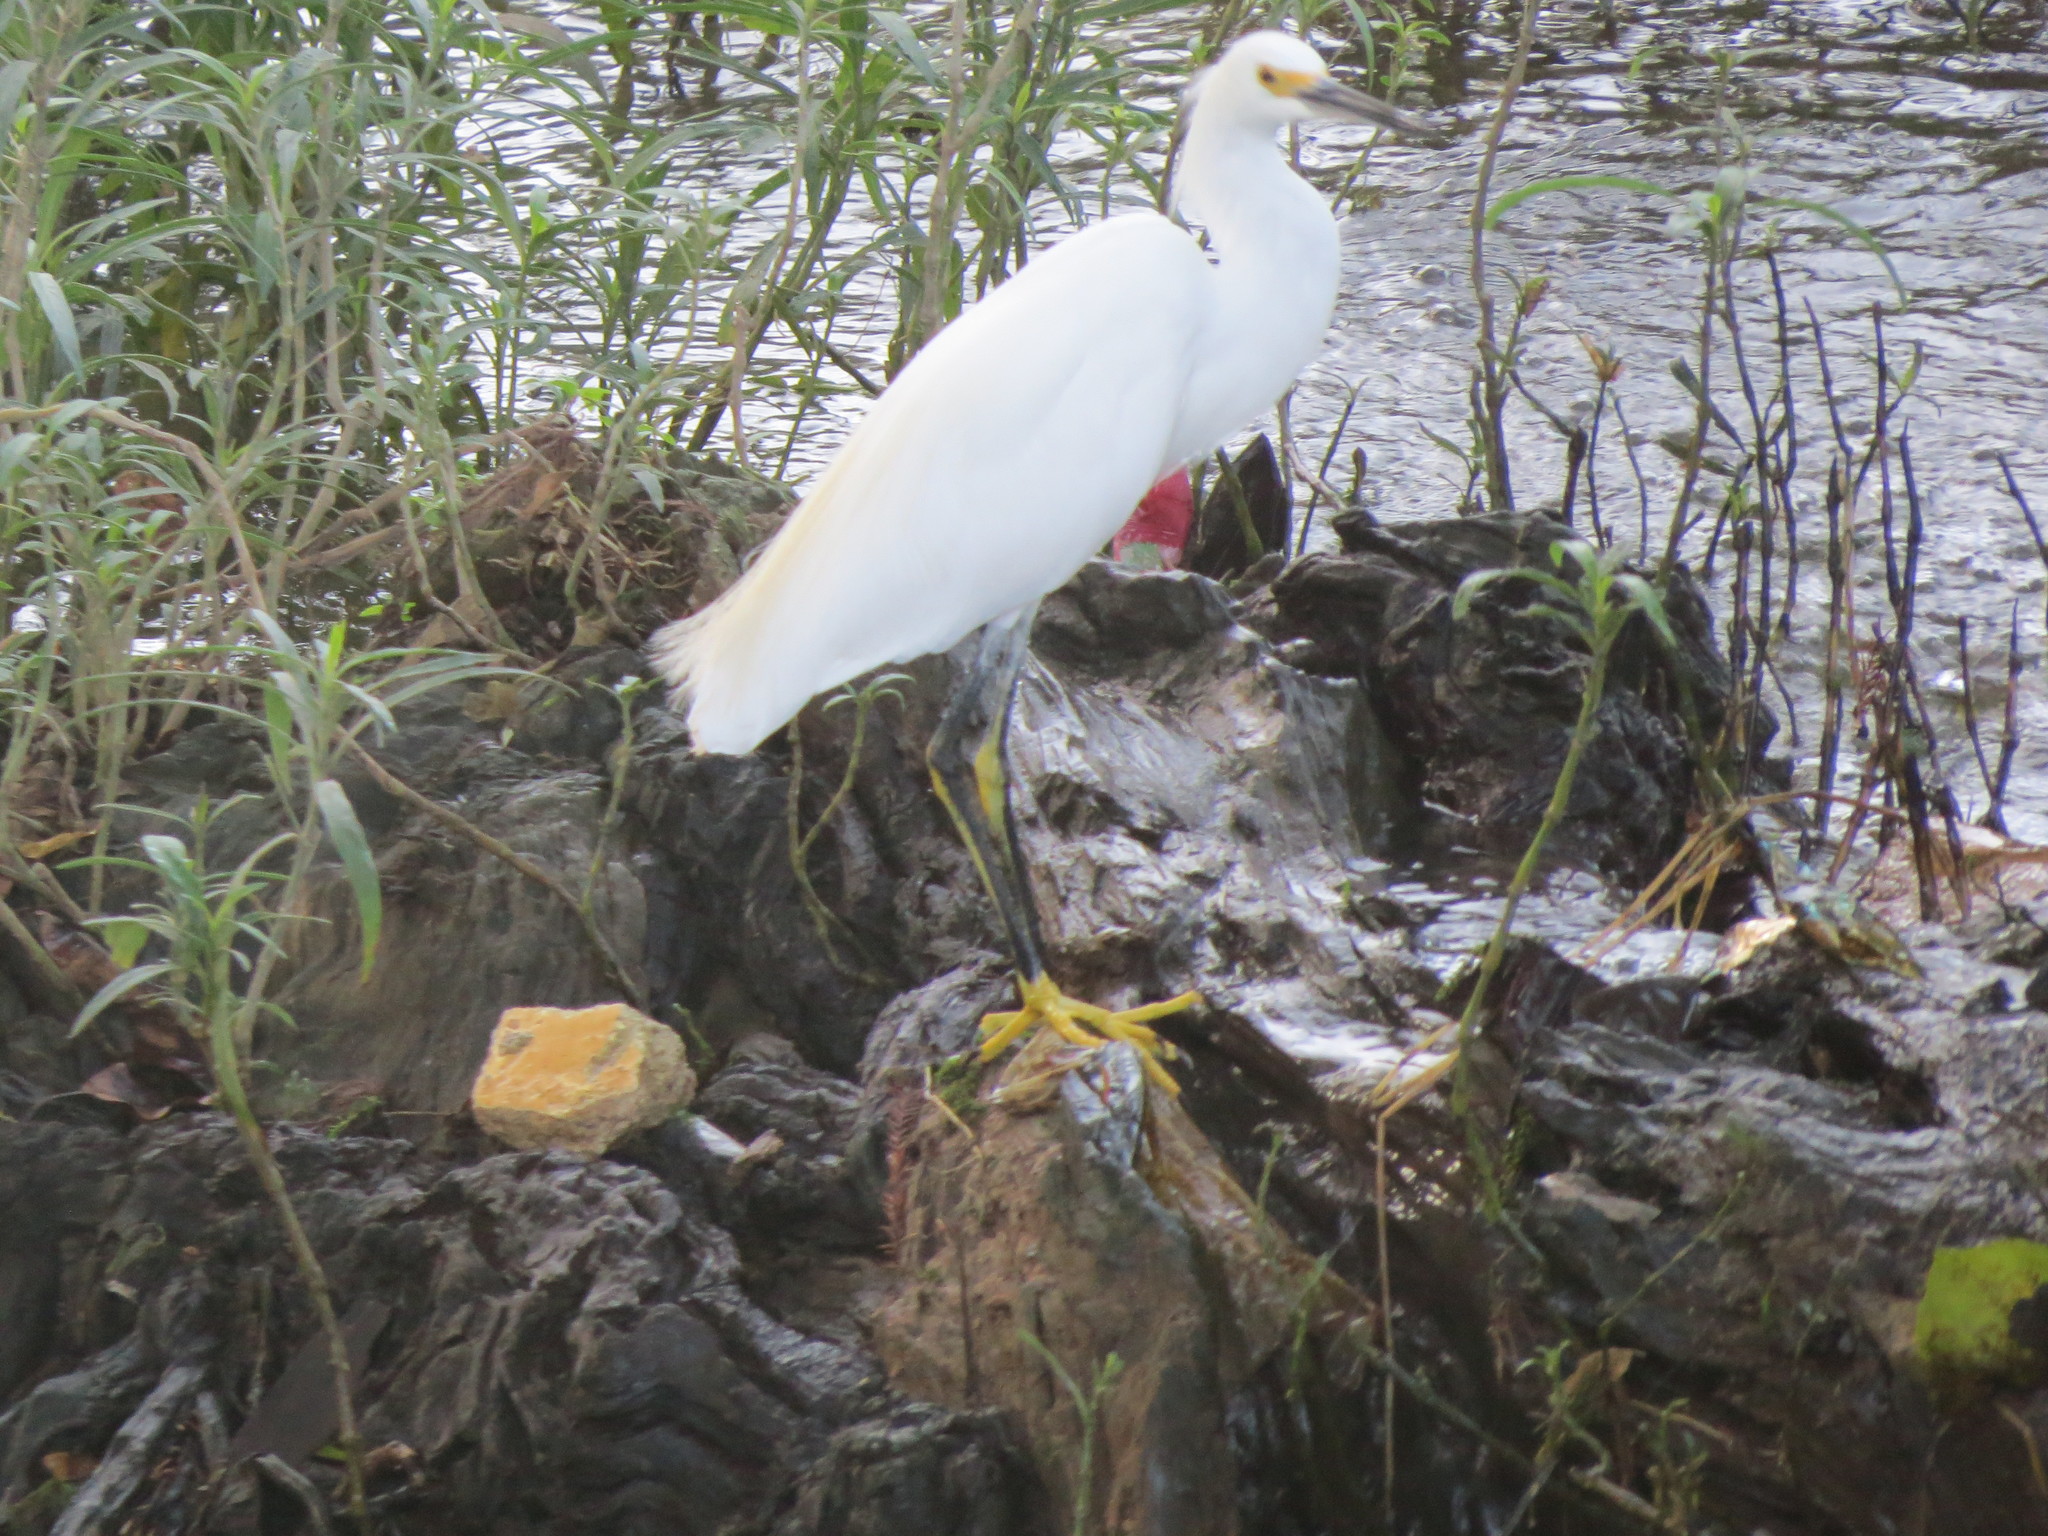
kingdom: Animalia
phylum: Chordata
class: Aves
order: Pelecaniformes
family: Ardeidae
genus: Egretta
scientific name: Egretta thula
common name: Snowy egret
